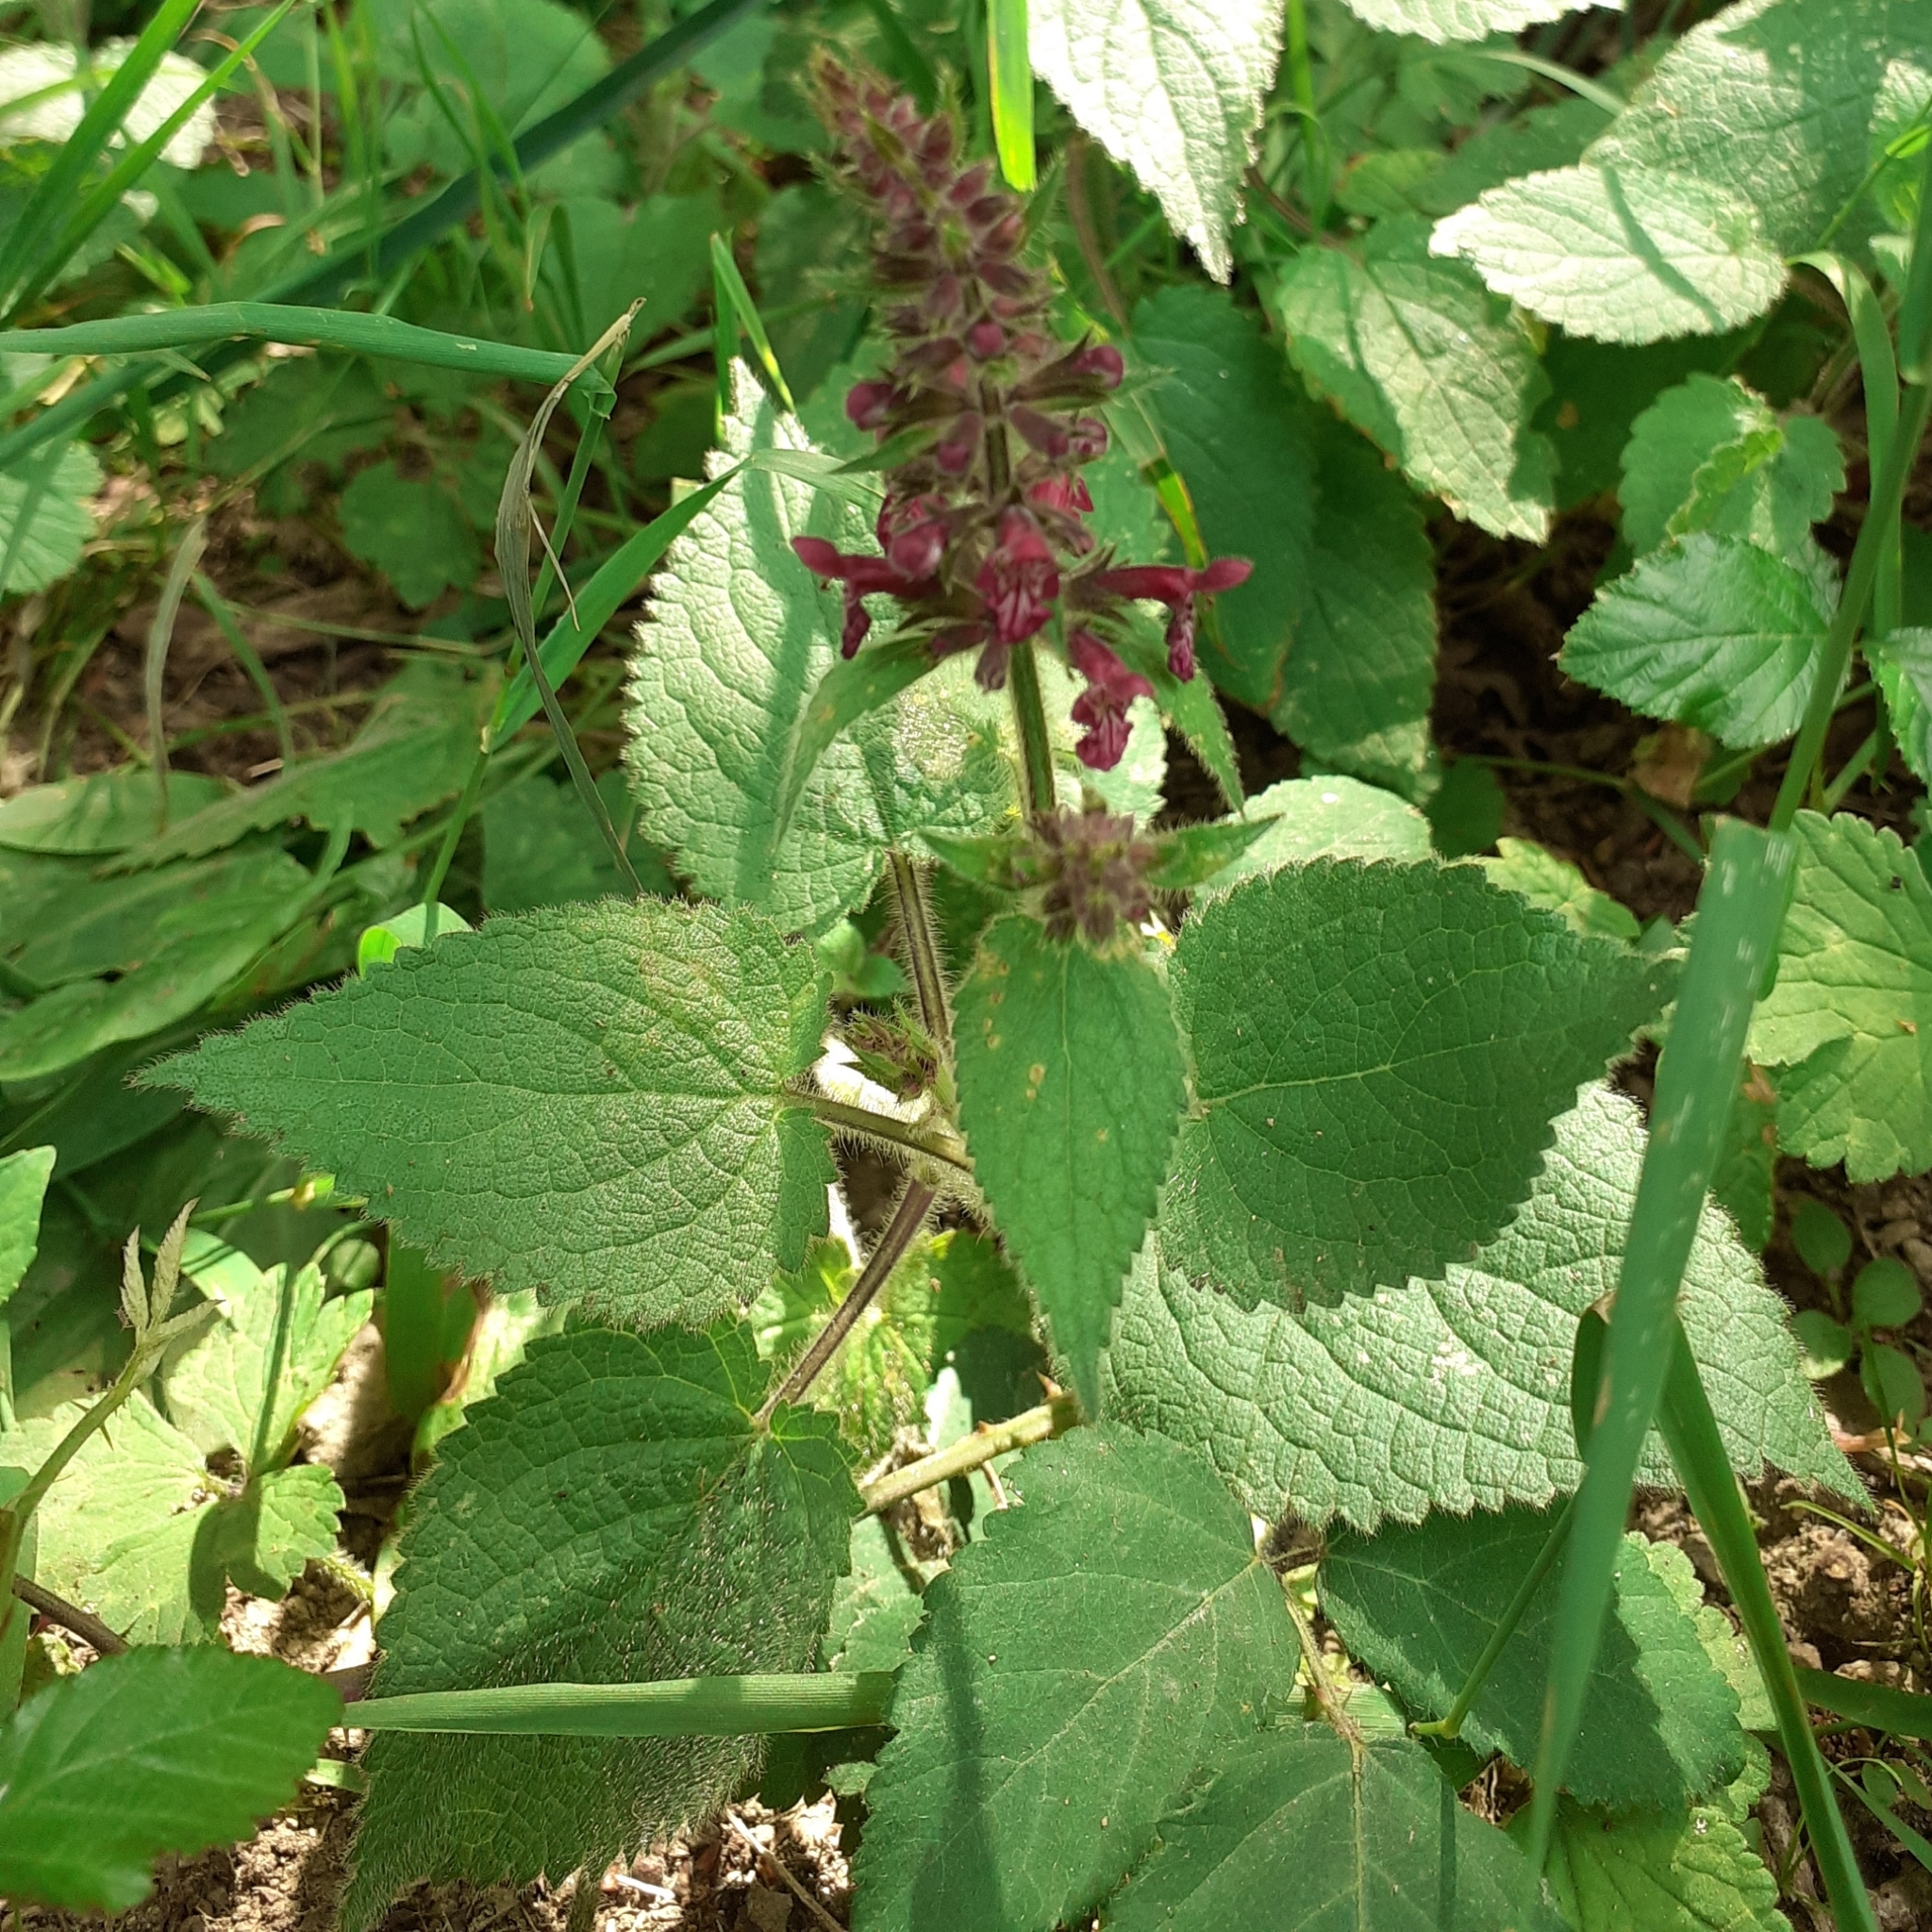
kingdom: Plantae
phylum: Tracheophyta
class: Magnoliopsida
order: Lamiales
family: Lamiaceae
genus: Stachys
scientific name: Stachys sylvatica
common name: Hedge woundwort
